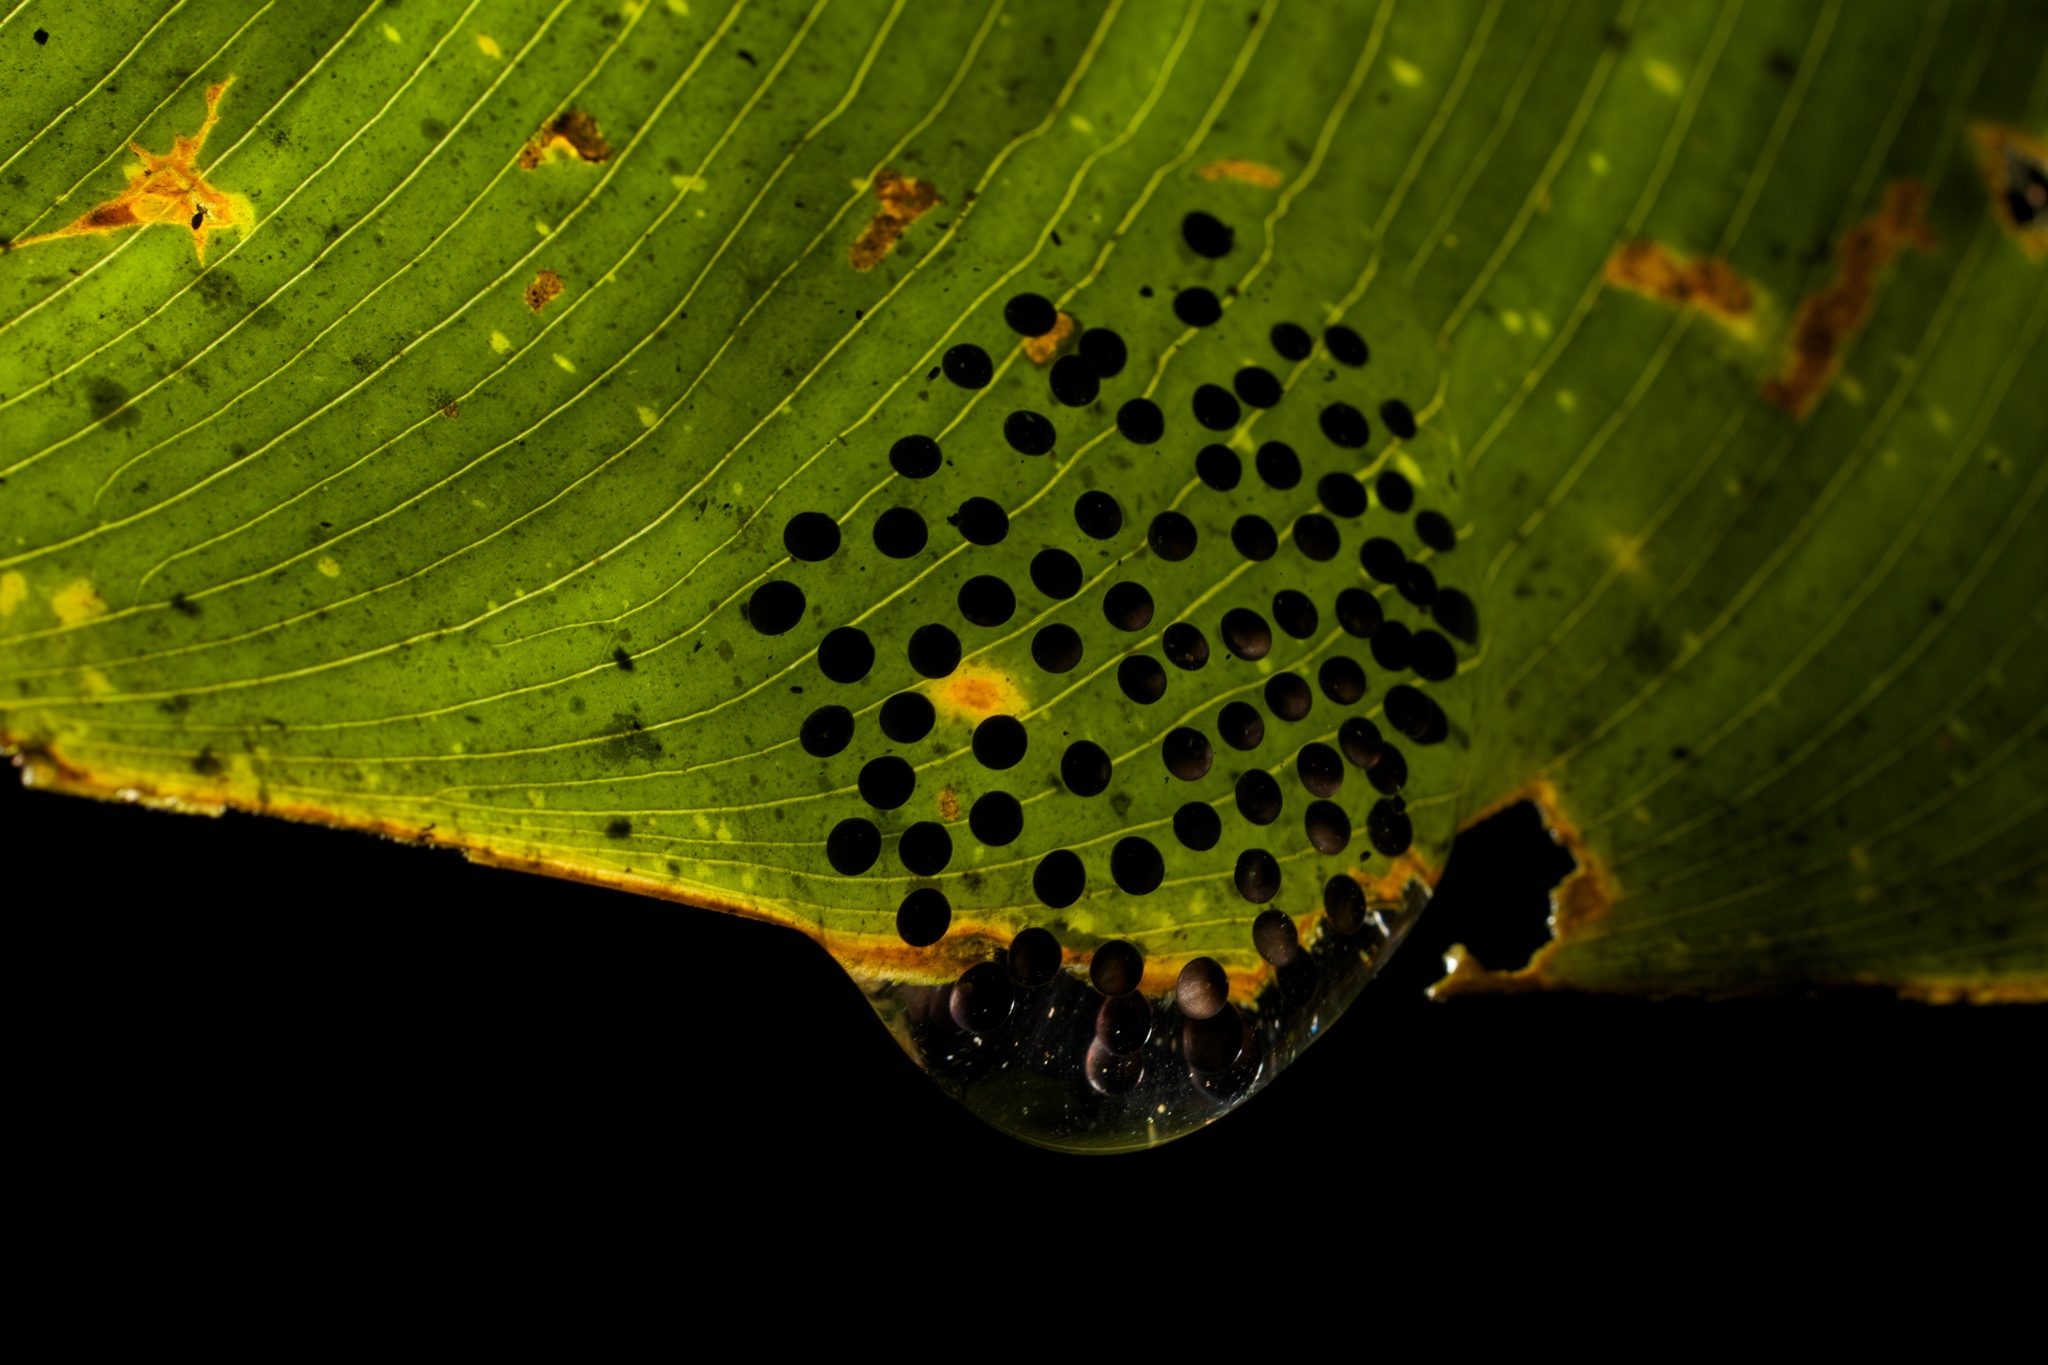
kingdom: Animalia
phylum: Chordata
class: Amphibia
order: Anura
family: Centrolenidae
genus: Cochranella
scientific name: Cochranella granulosa
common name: Grainy cochran frog
